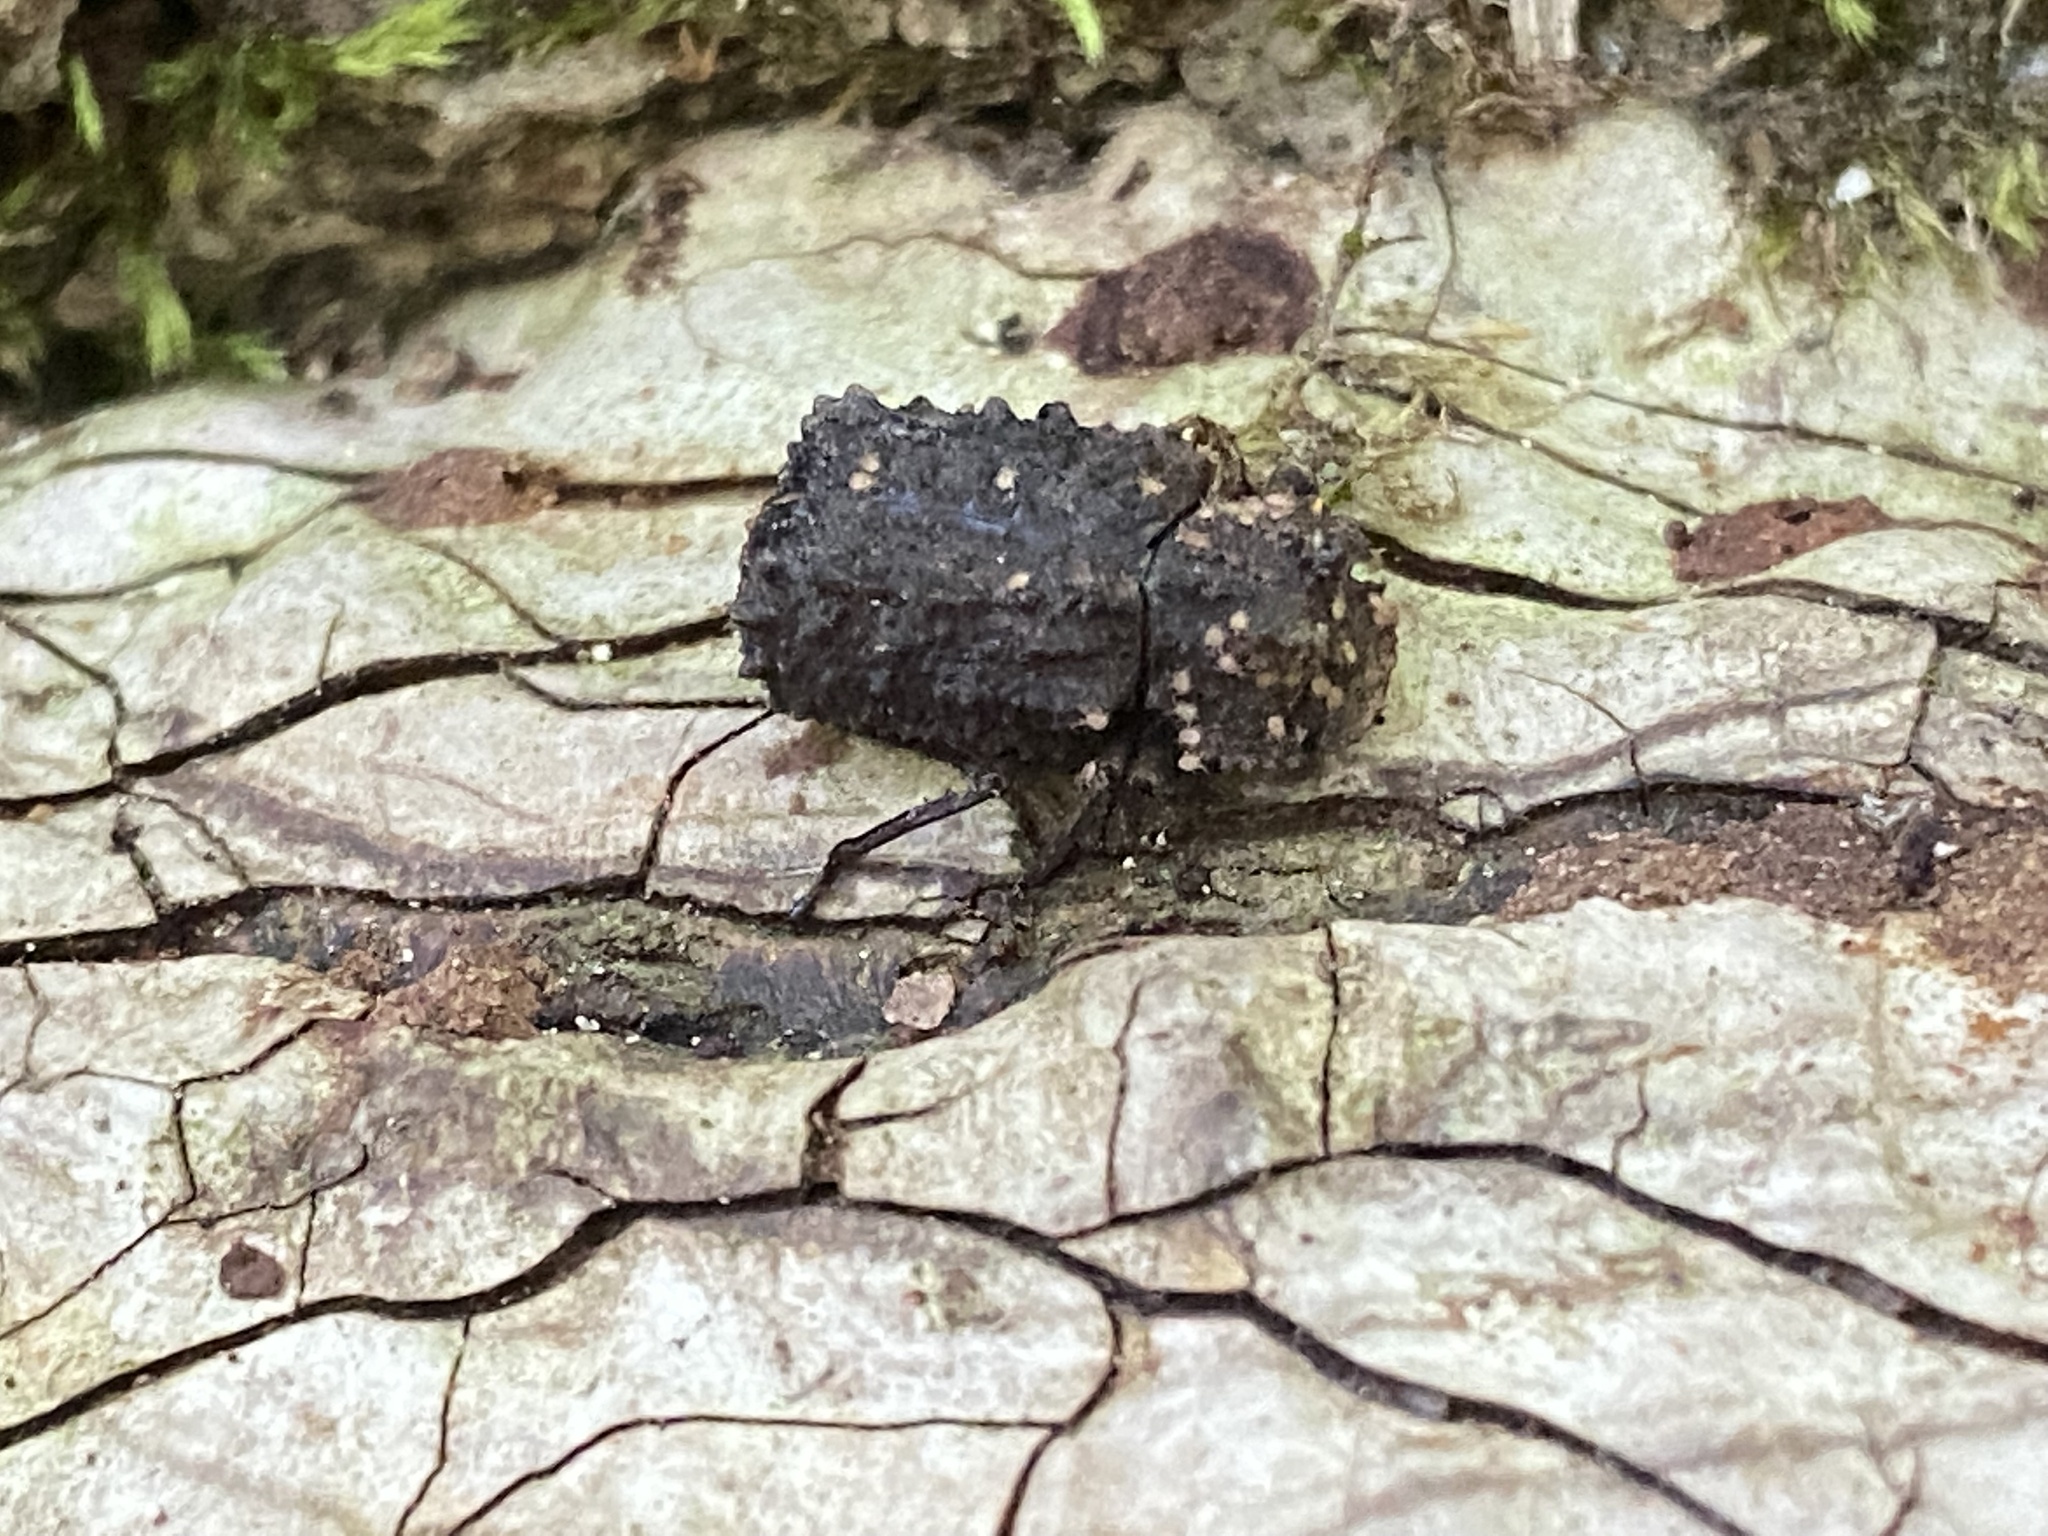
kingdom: Animalia
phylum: Arthropoda
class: Insecta
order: Coleoptera
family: Tenebrionidae
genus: Gnatocerus
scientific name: Gnatocerus cornutus
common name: Broad-horned flour beetle
